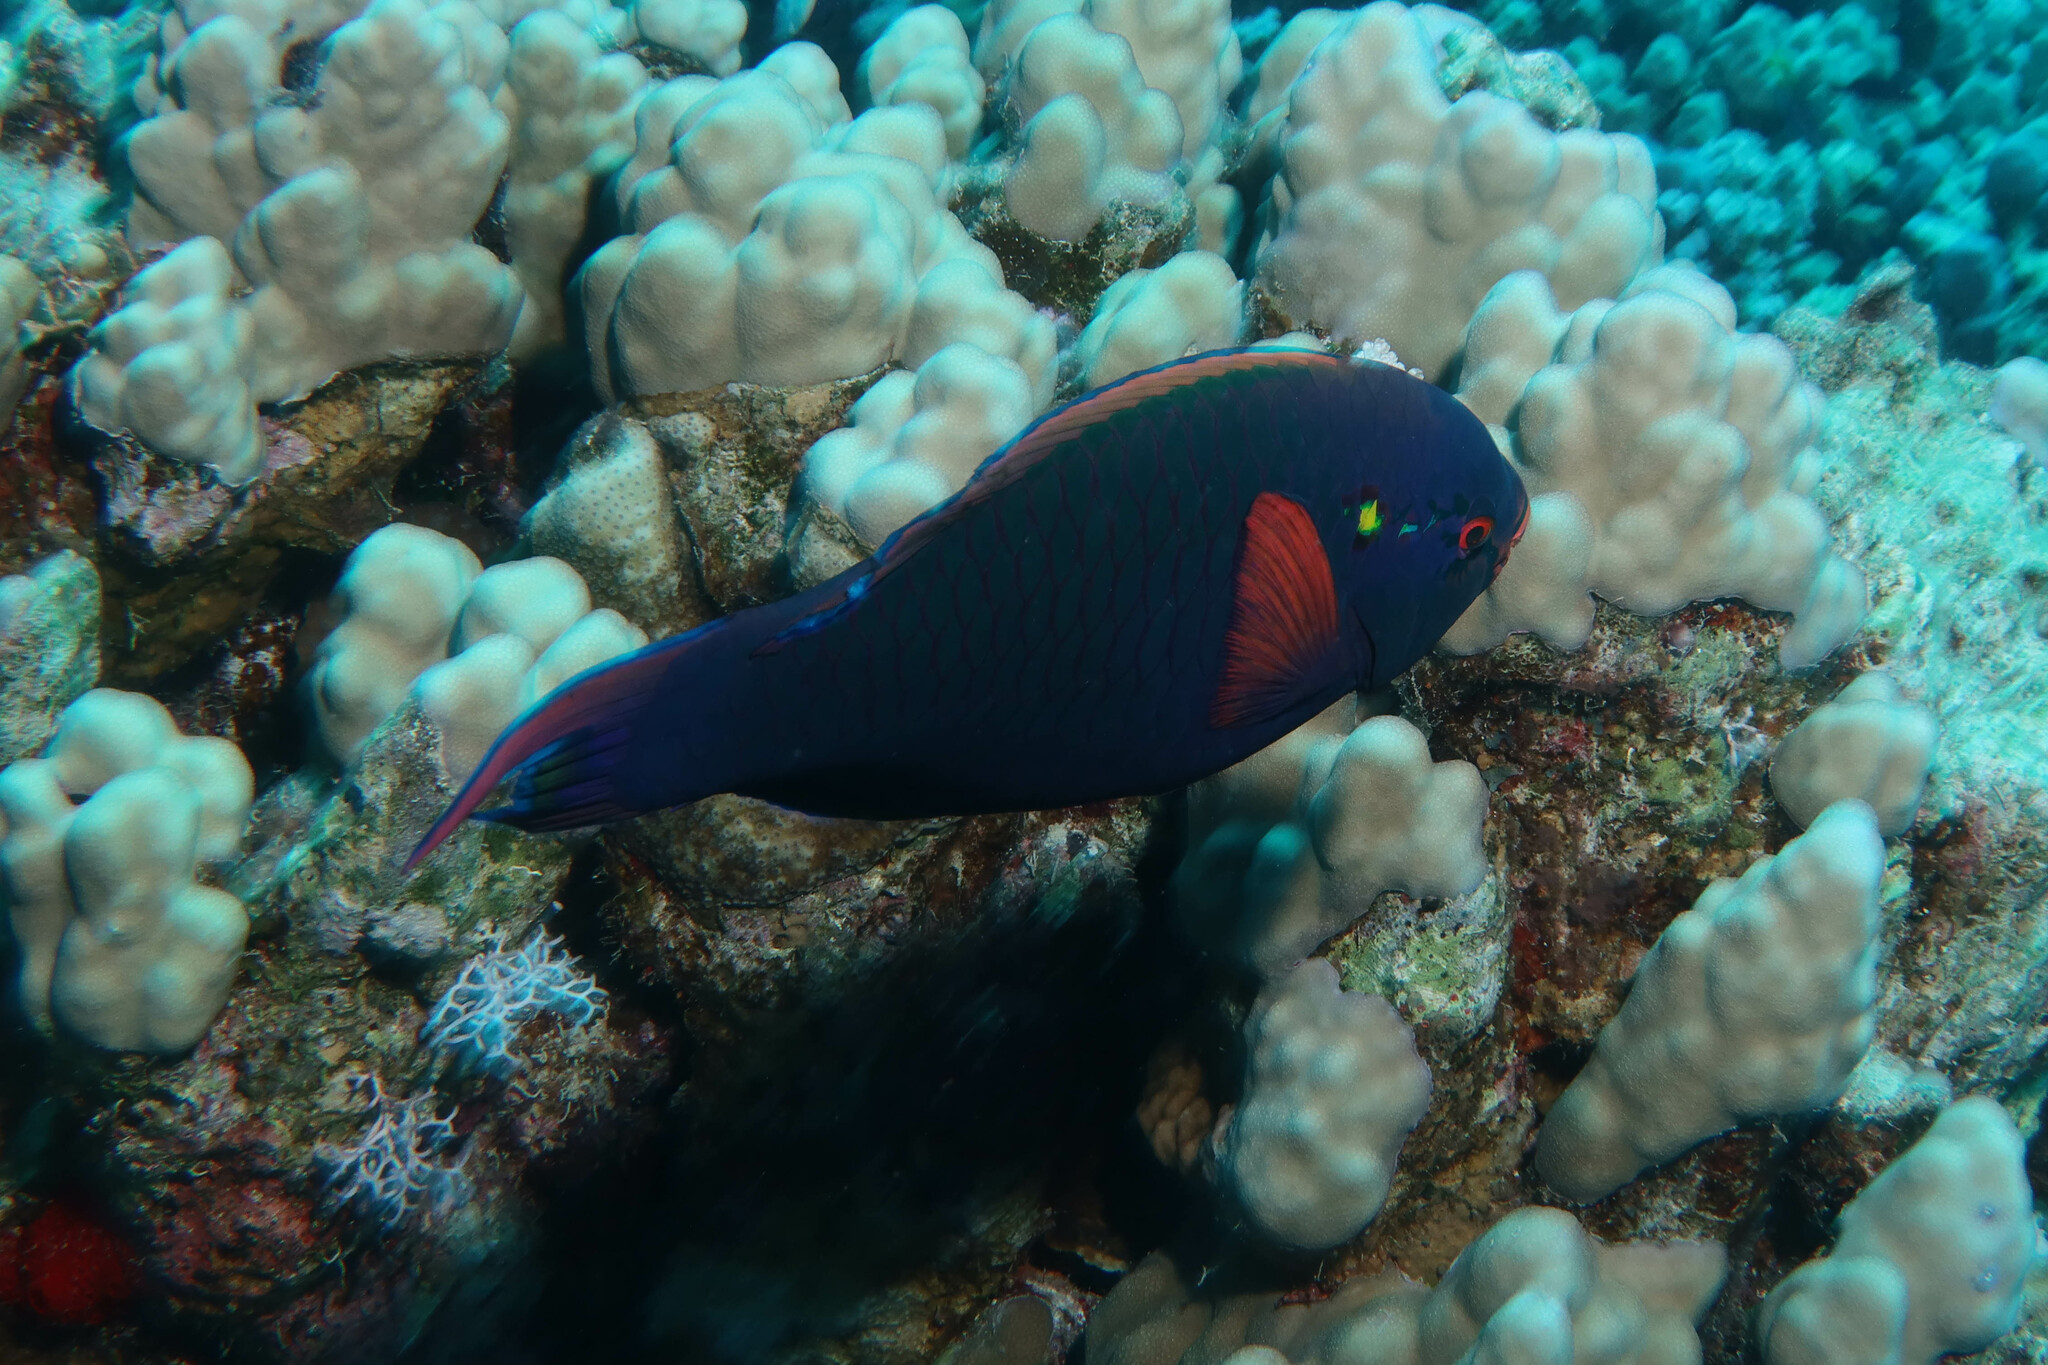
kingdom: Animalia
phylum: Chordata
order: Perciformes
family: Scaridae
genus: Scarus
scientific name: Scarus niger
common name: Dusky parrotfish
